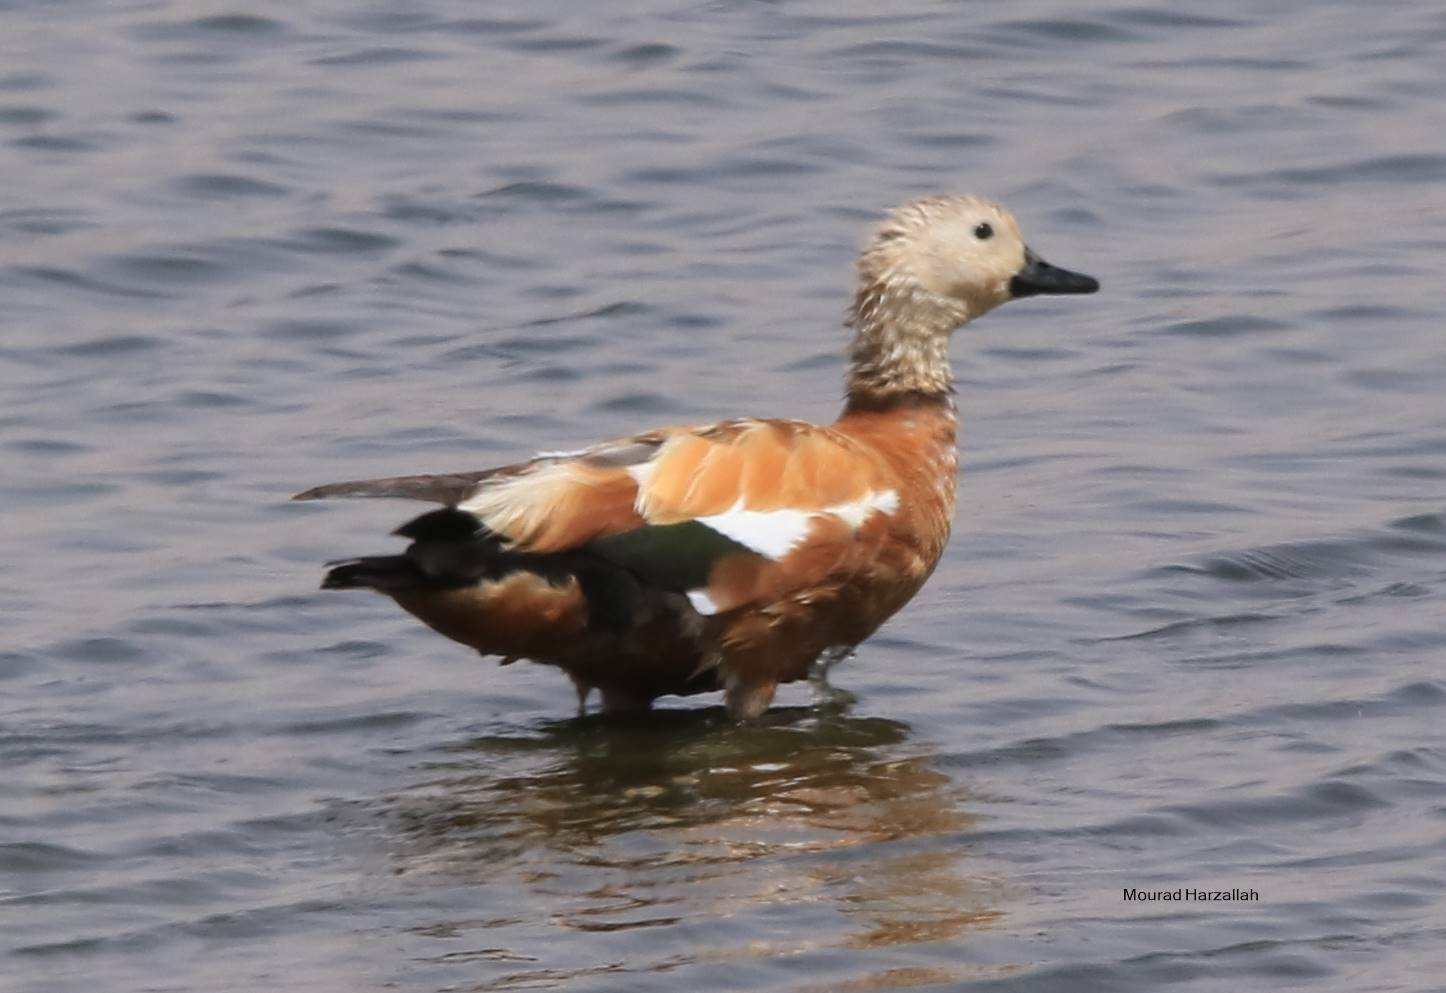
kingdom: Animalia
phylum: Chordata
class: Aves
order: Anseriformes
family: Anatidae
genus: Tadorna
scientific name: Tadorna ferruginea
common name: Ruddy shelduck
